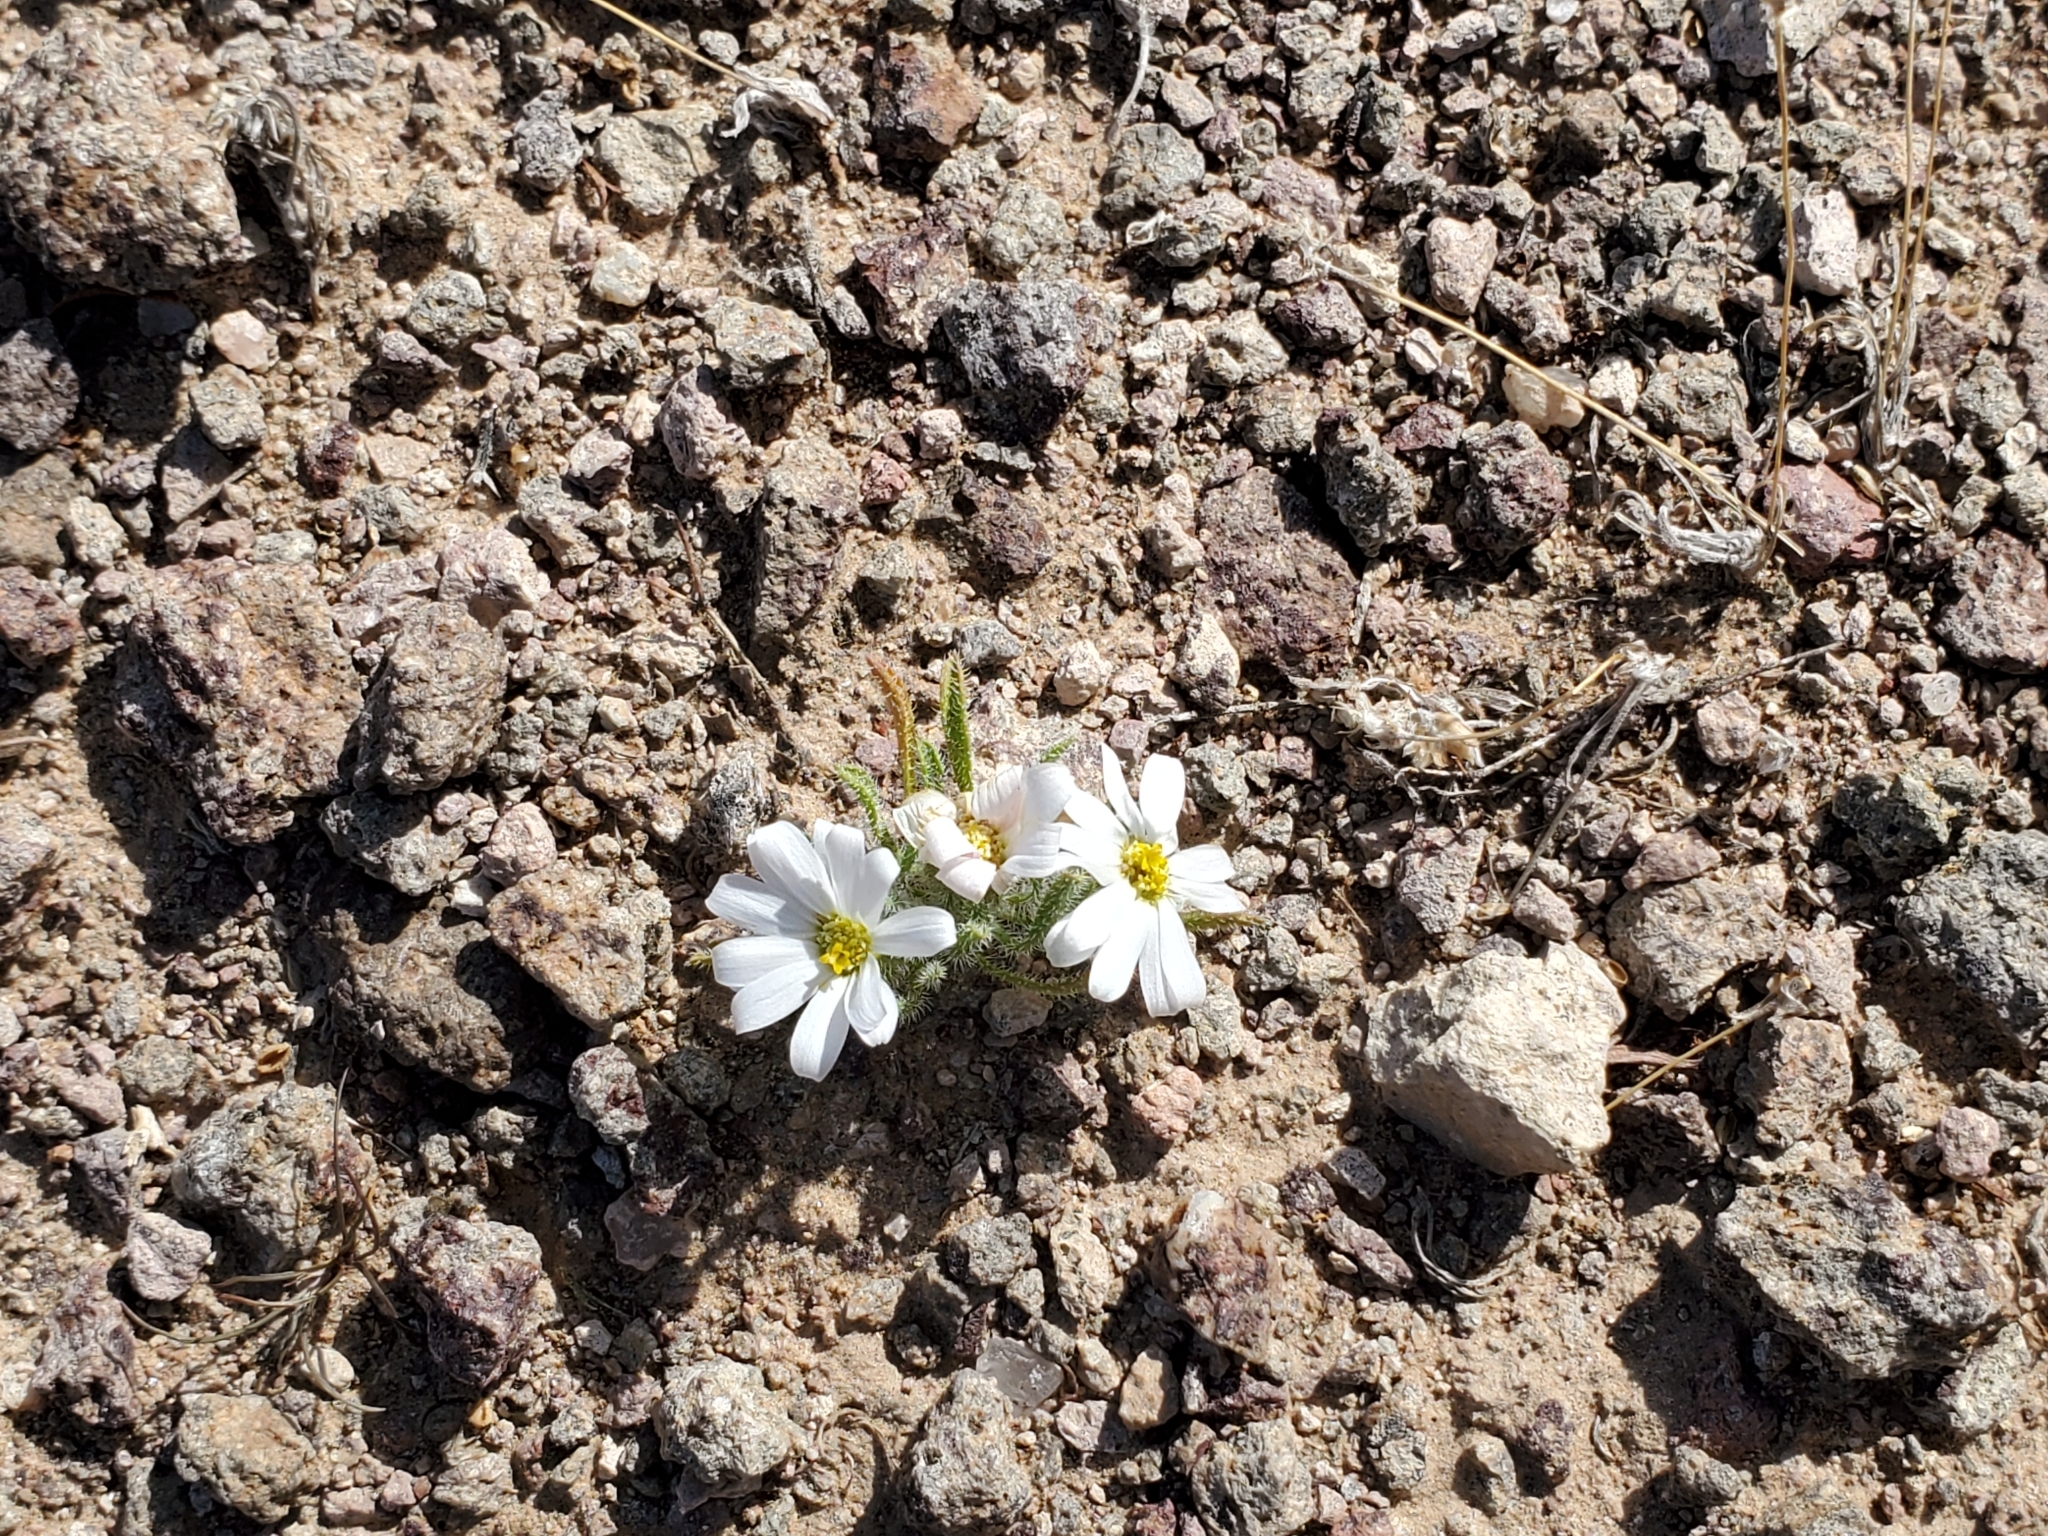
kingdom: Plantae
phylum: Tracheophyta
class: Magnoliopsida
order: Asterales
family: Asteraceae
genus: Monoptilon
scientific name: Monoptilon bellioides
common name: Bristly desertstar
